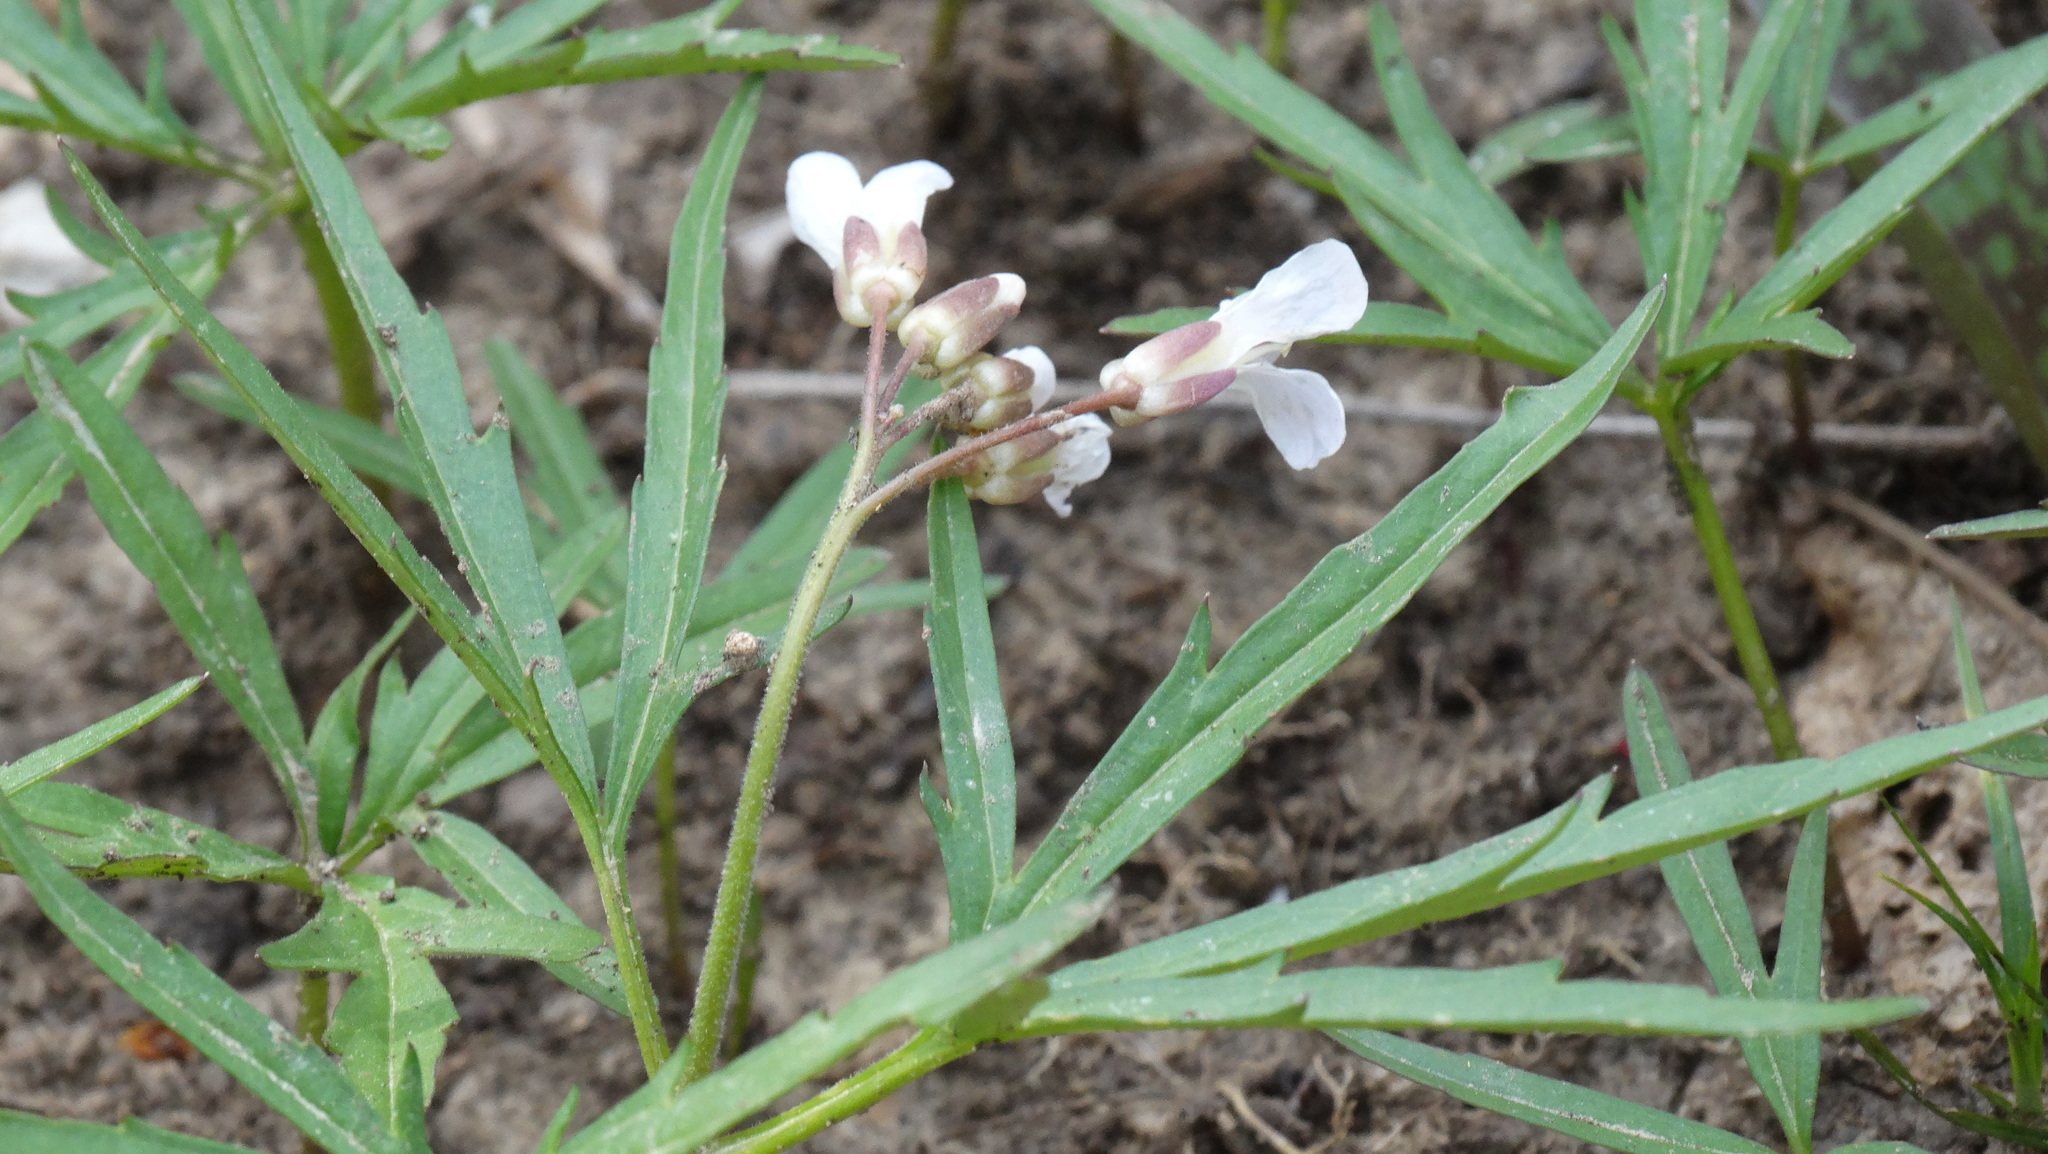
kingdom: Plantae
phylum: Tracheophyta
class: Magnoliopsida
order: Brassicales
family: Brassicaceae
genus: Cardamine
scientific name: Cardamine concatenata
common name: Cut-leaf toothcup
